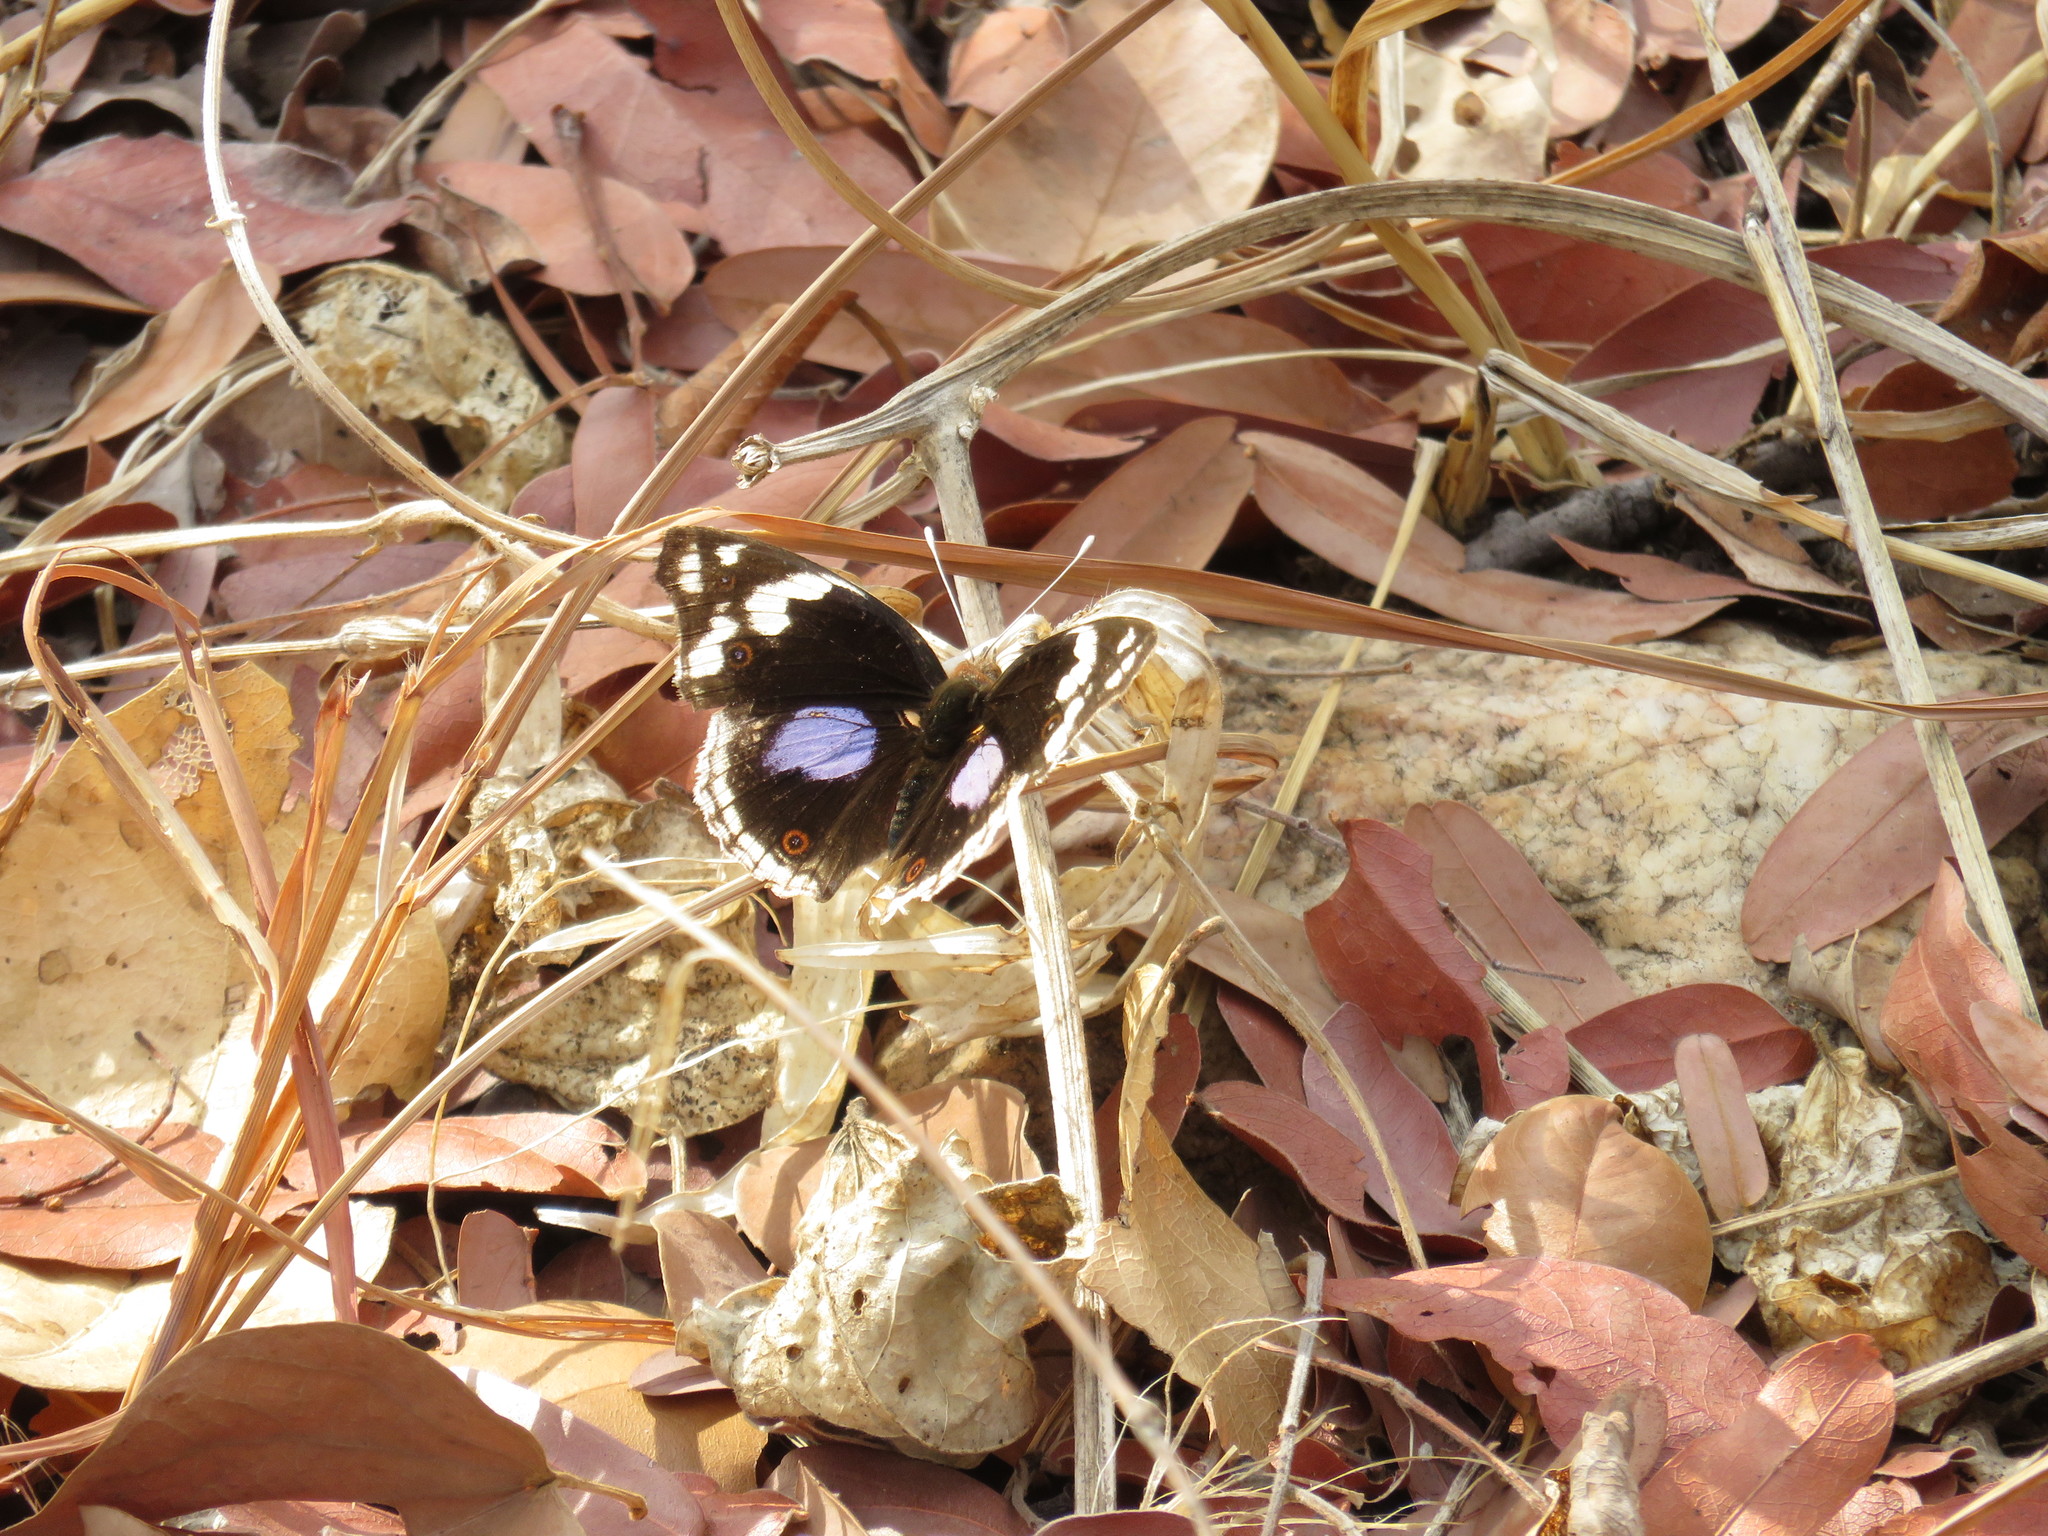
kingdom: Animalia
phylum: Arthropoda
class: Insecta
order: Lepidoptera
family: Nymphalidae
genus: Junonia
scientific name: Junonia oenone
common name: Dark blue pansy
